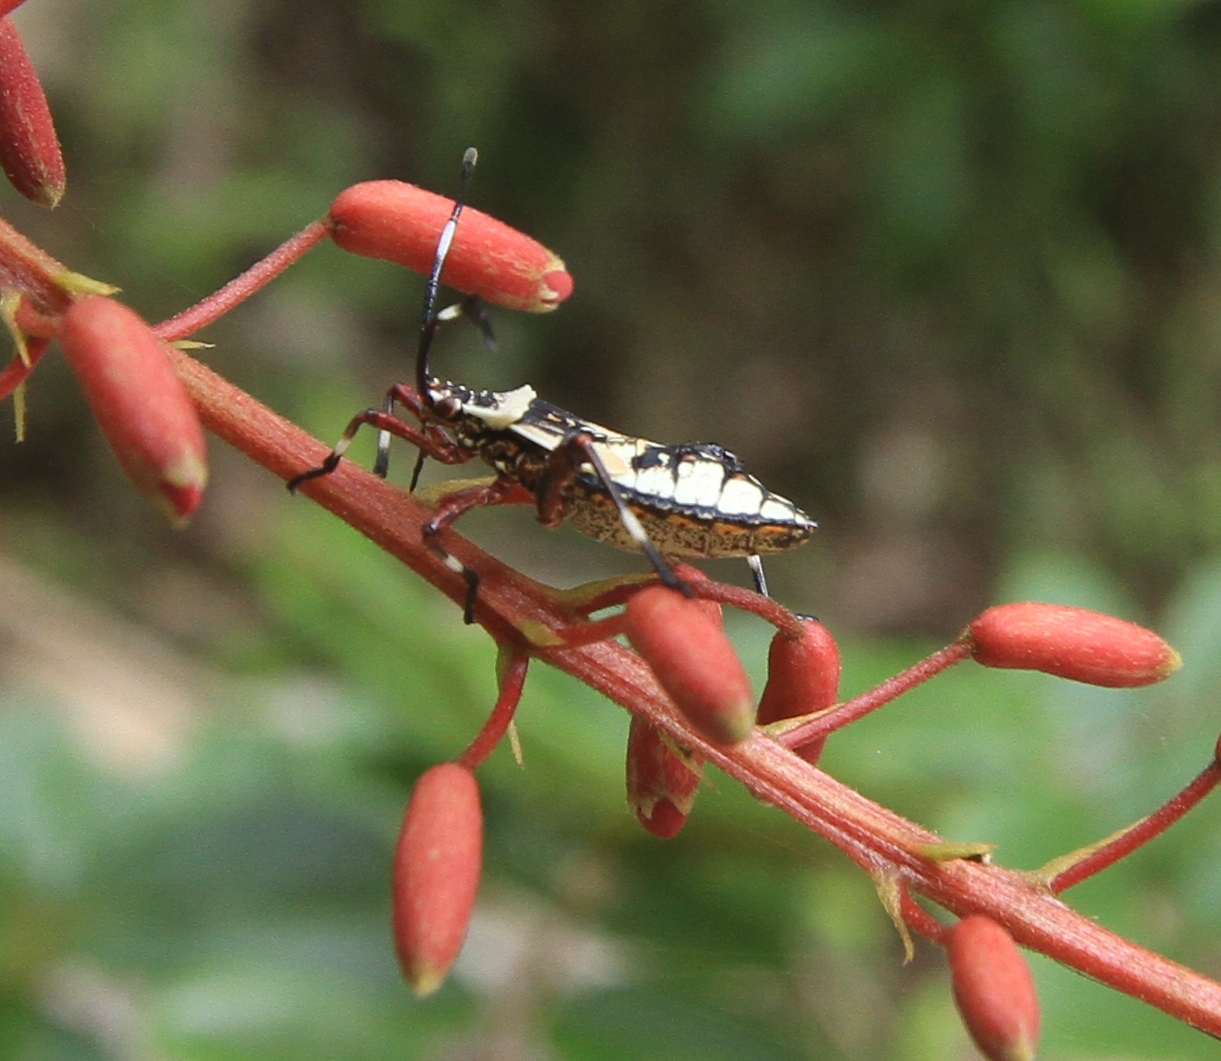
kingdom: Animalia
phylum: Arthropoda
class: Insecta
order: Hemiptera
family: Coreidae
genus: Acanthocerus
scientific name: Acanthocerus crucifer
